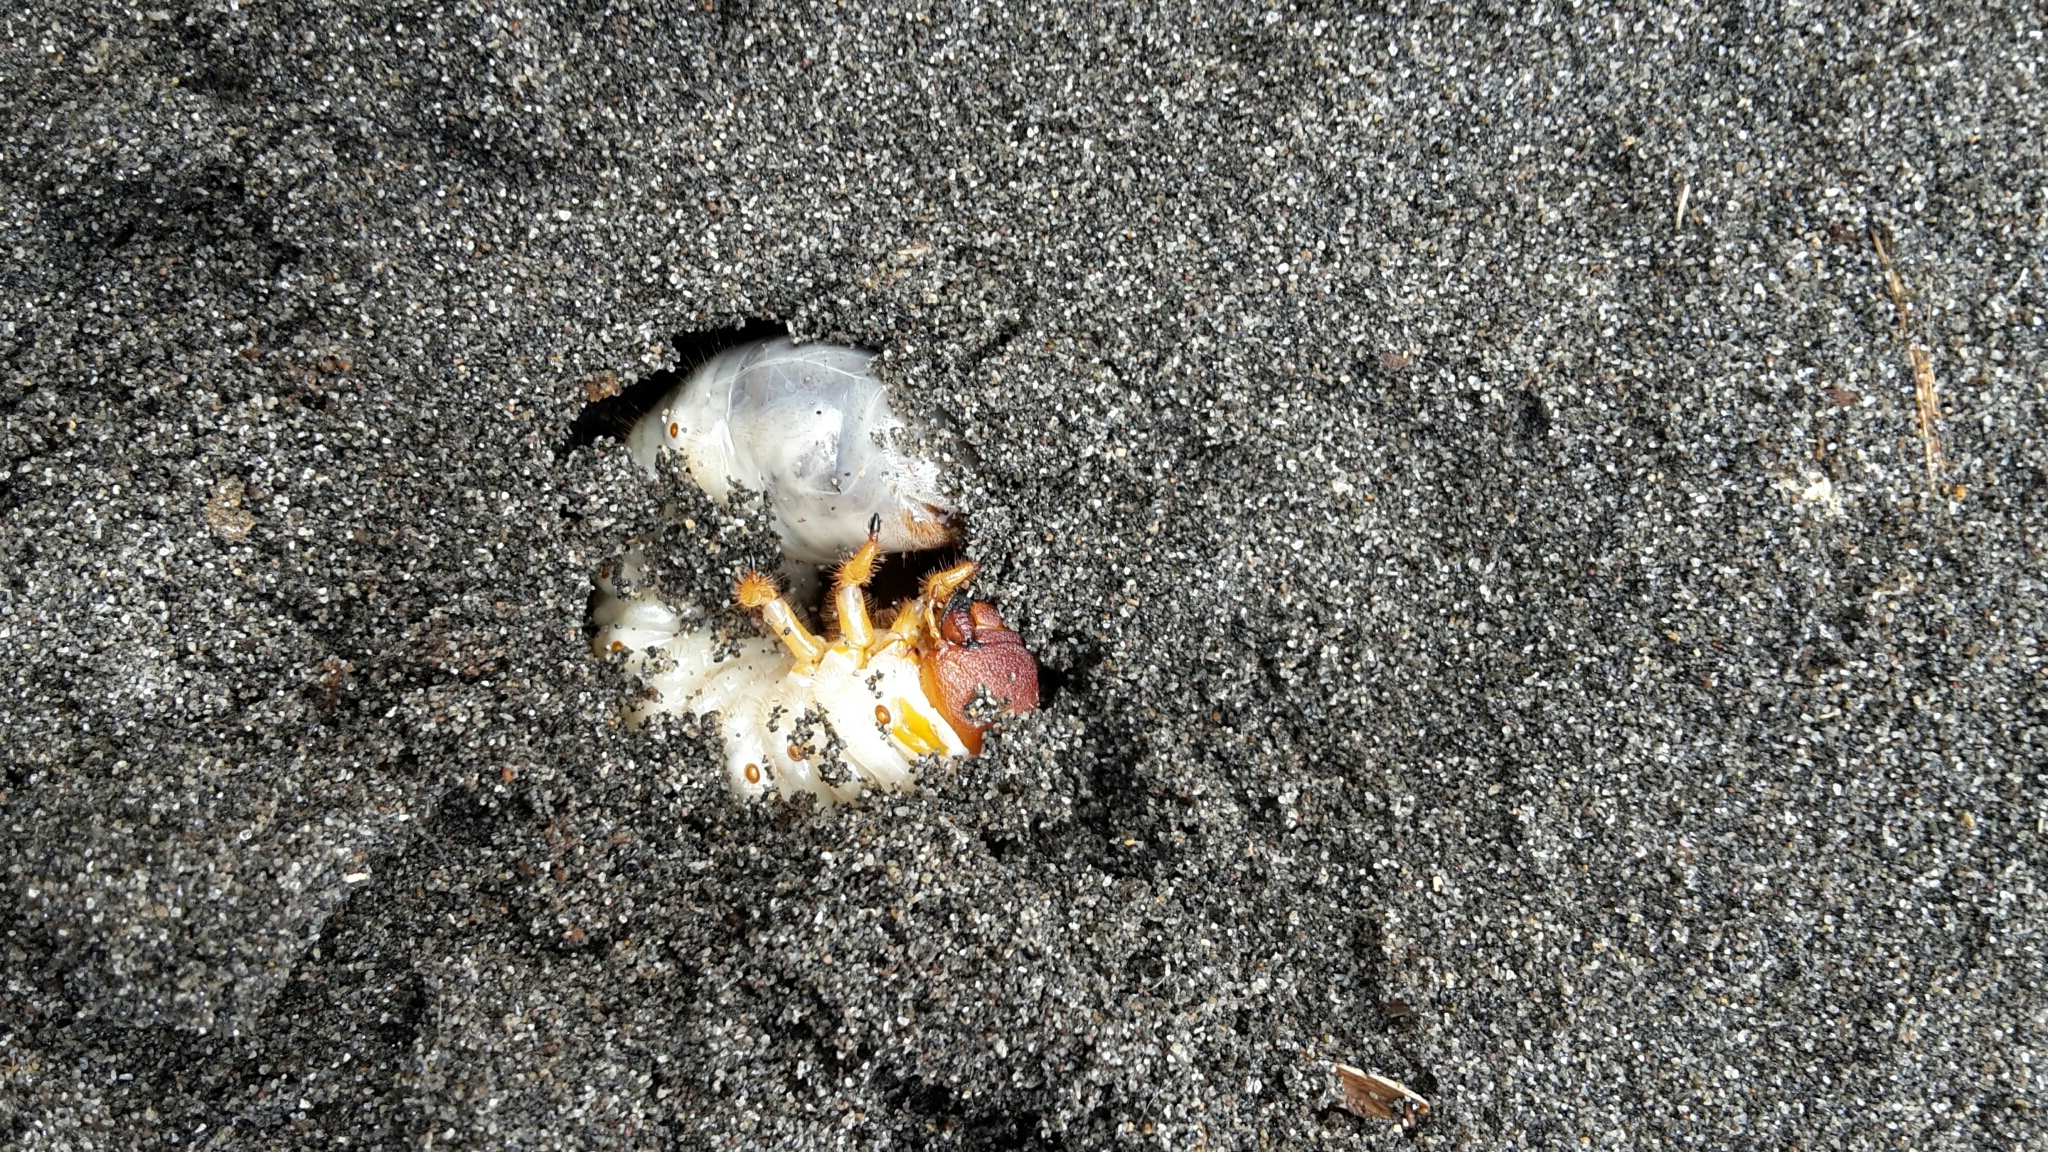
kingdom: Animalia
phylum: Arthropoda
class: Insecta
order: Coleoptera
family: Scarabaeidae
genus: Pericoptus
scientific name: Pericoptus truncatus
